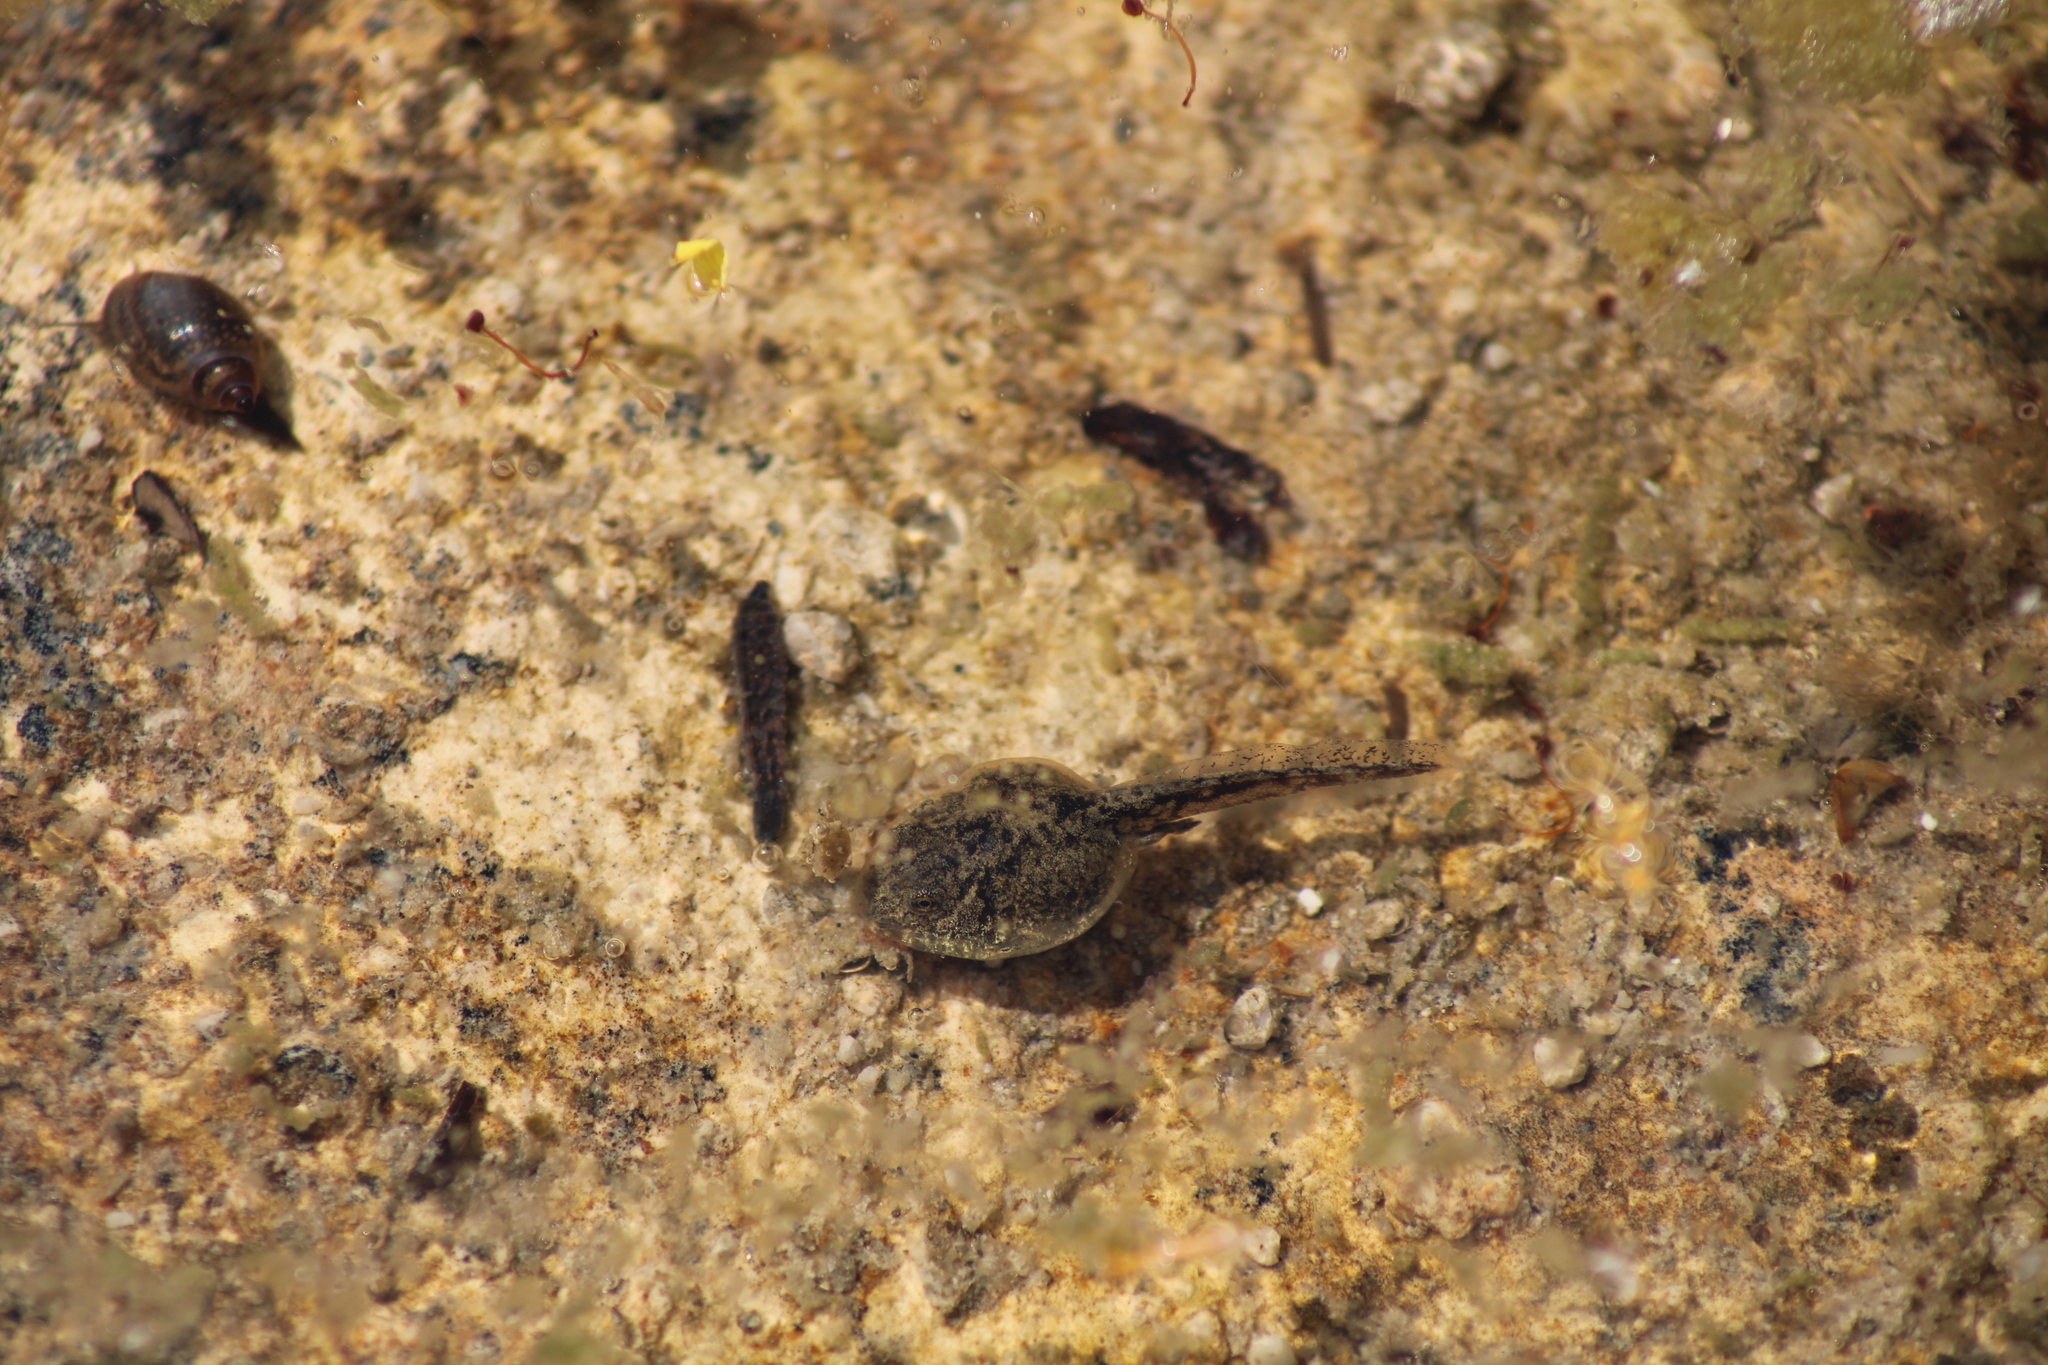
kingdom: Animalia
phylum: Chordata
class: Amphibia
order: Anura
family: Bufonidae
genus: Bufotes
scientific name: Bufotes viridis
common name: European green toad
